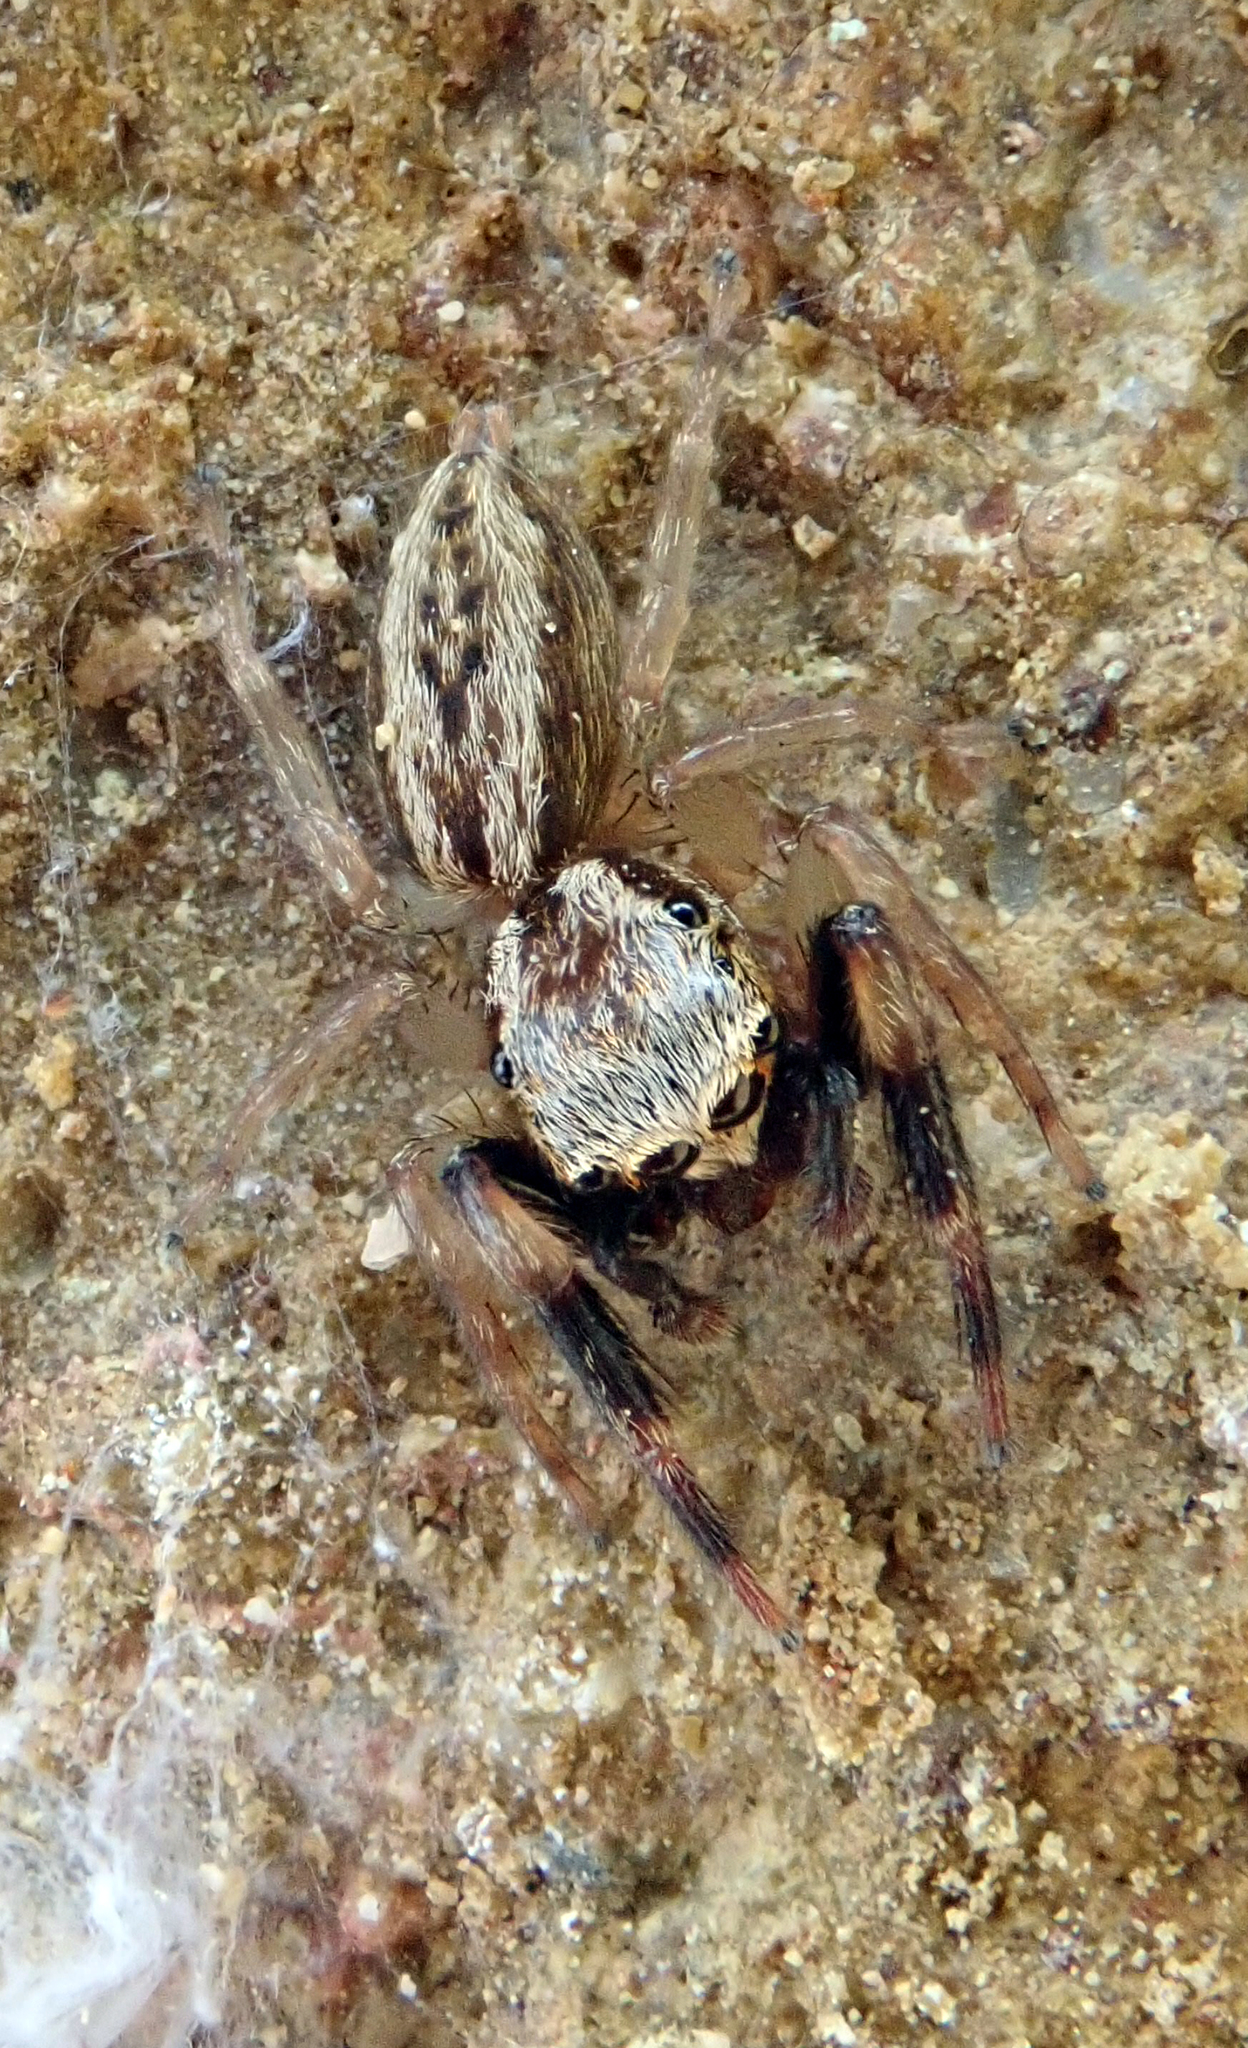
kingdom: Animalia
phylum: Arthropoda
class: Arachnida
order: Araneae
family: Salticidae
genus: Trite
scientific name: Trite auricoma
